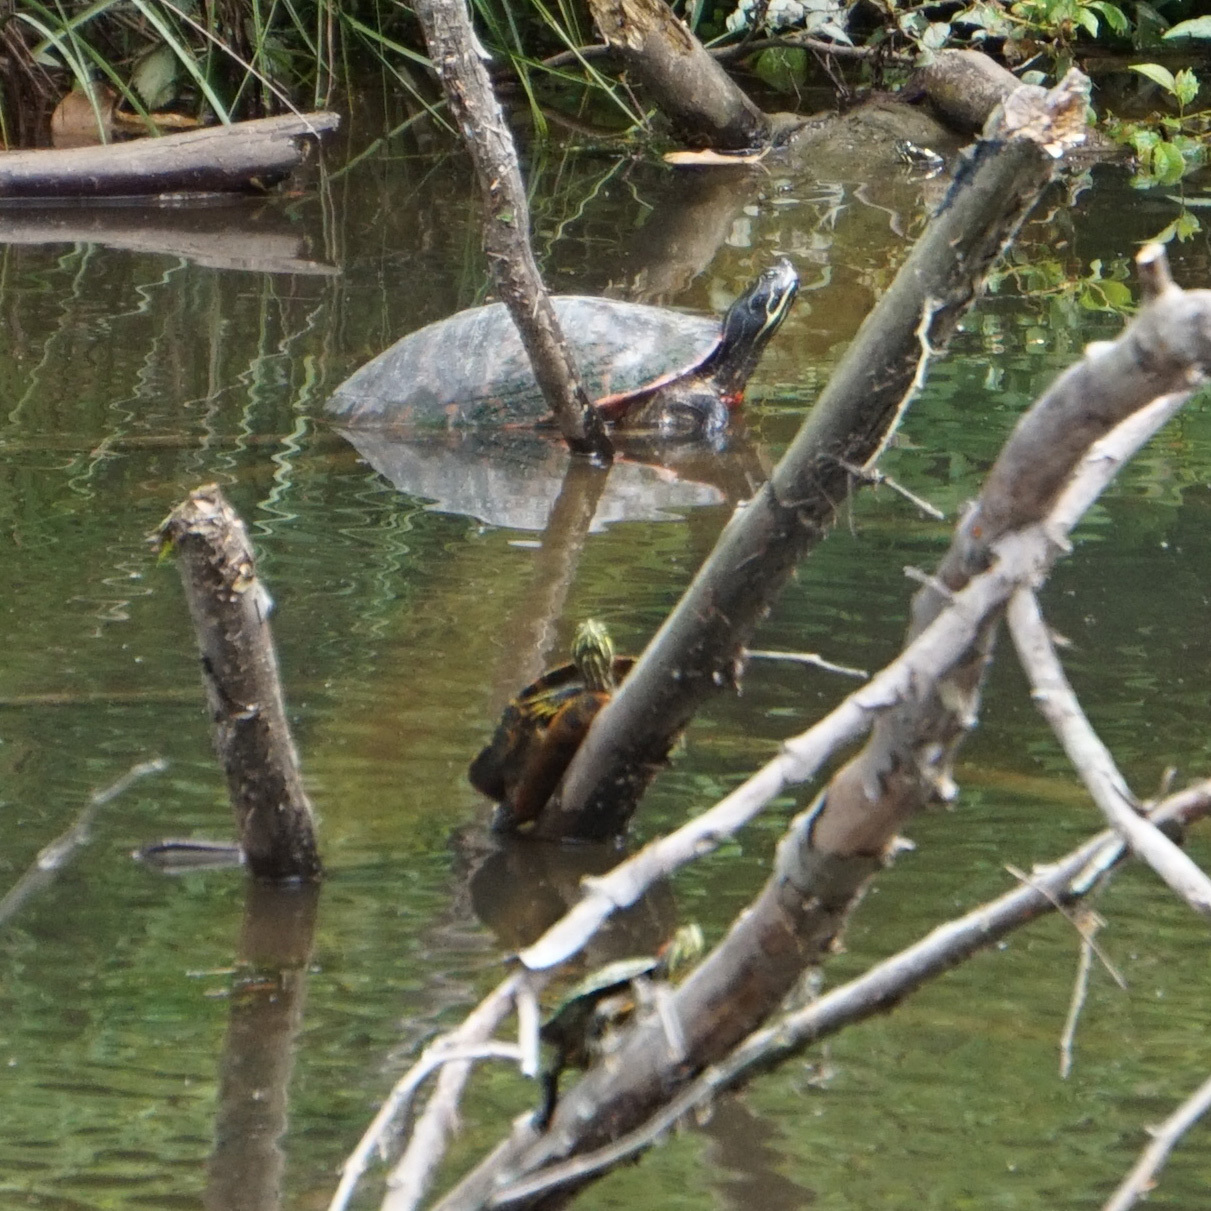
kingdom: Animalia
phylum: Chordata
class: Testudines
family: Emydidae
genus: Trachemys
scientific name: Trachemys scripta
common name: Slider
